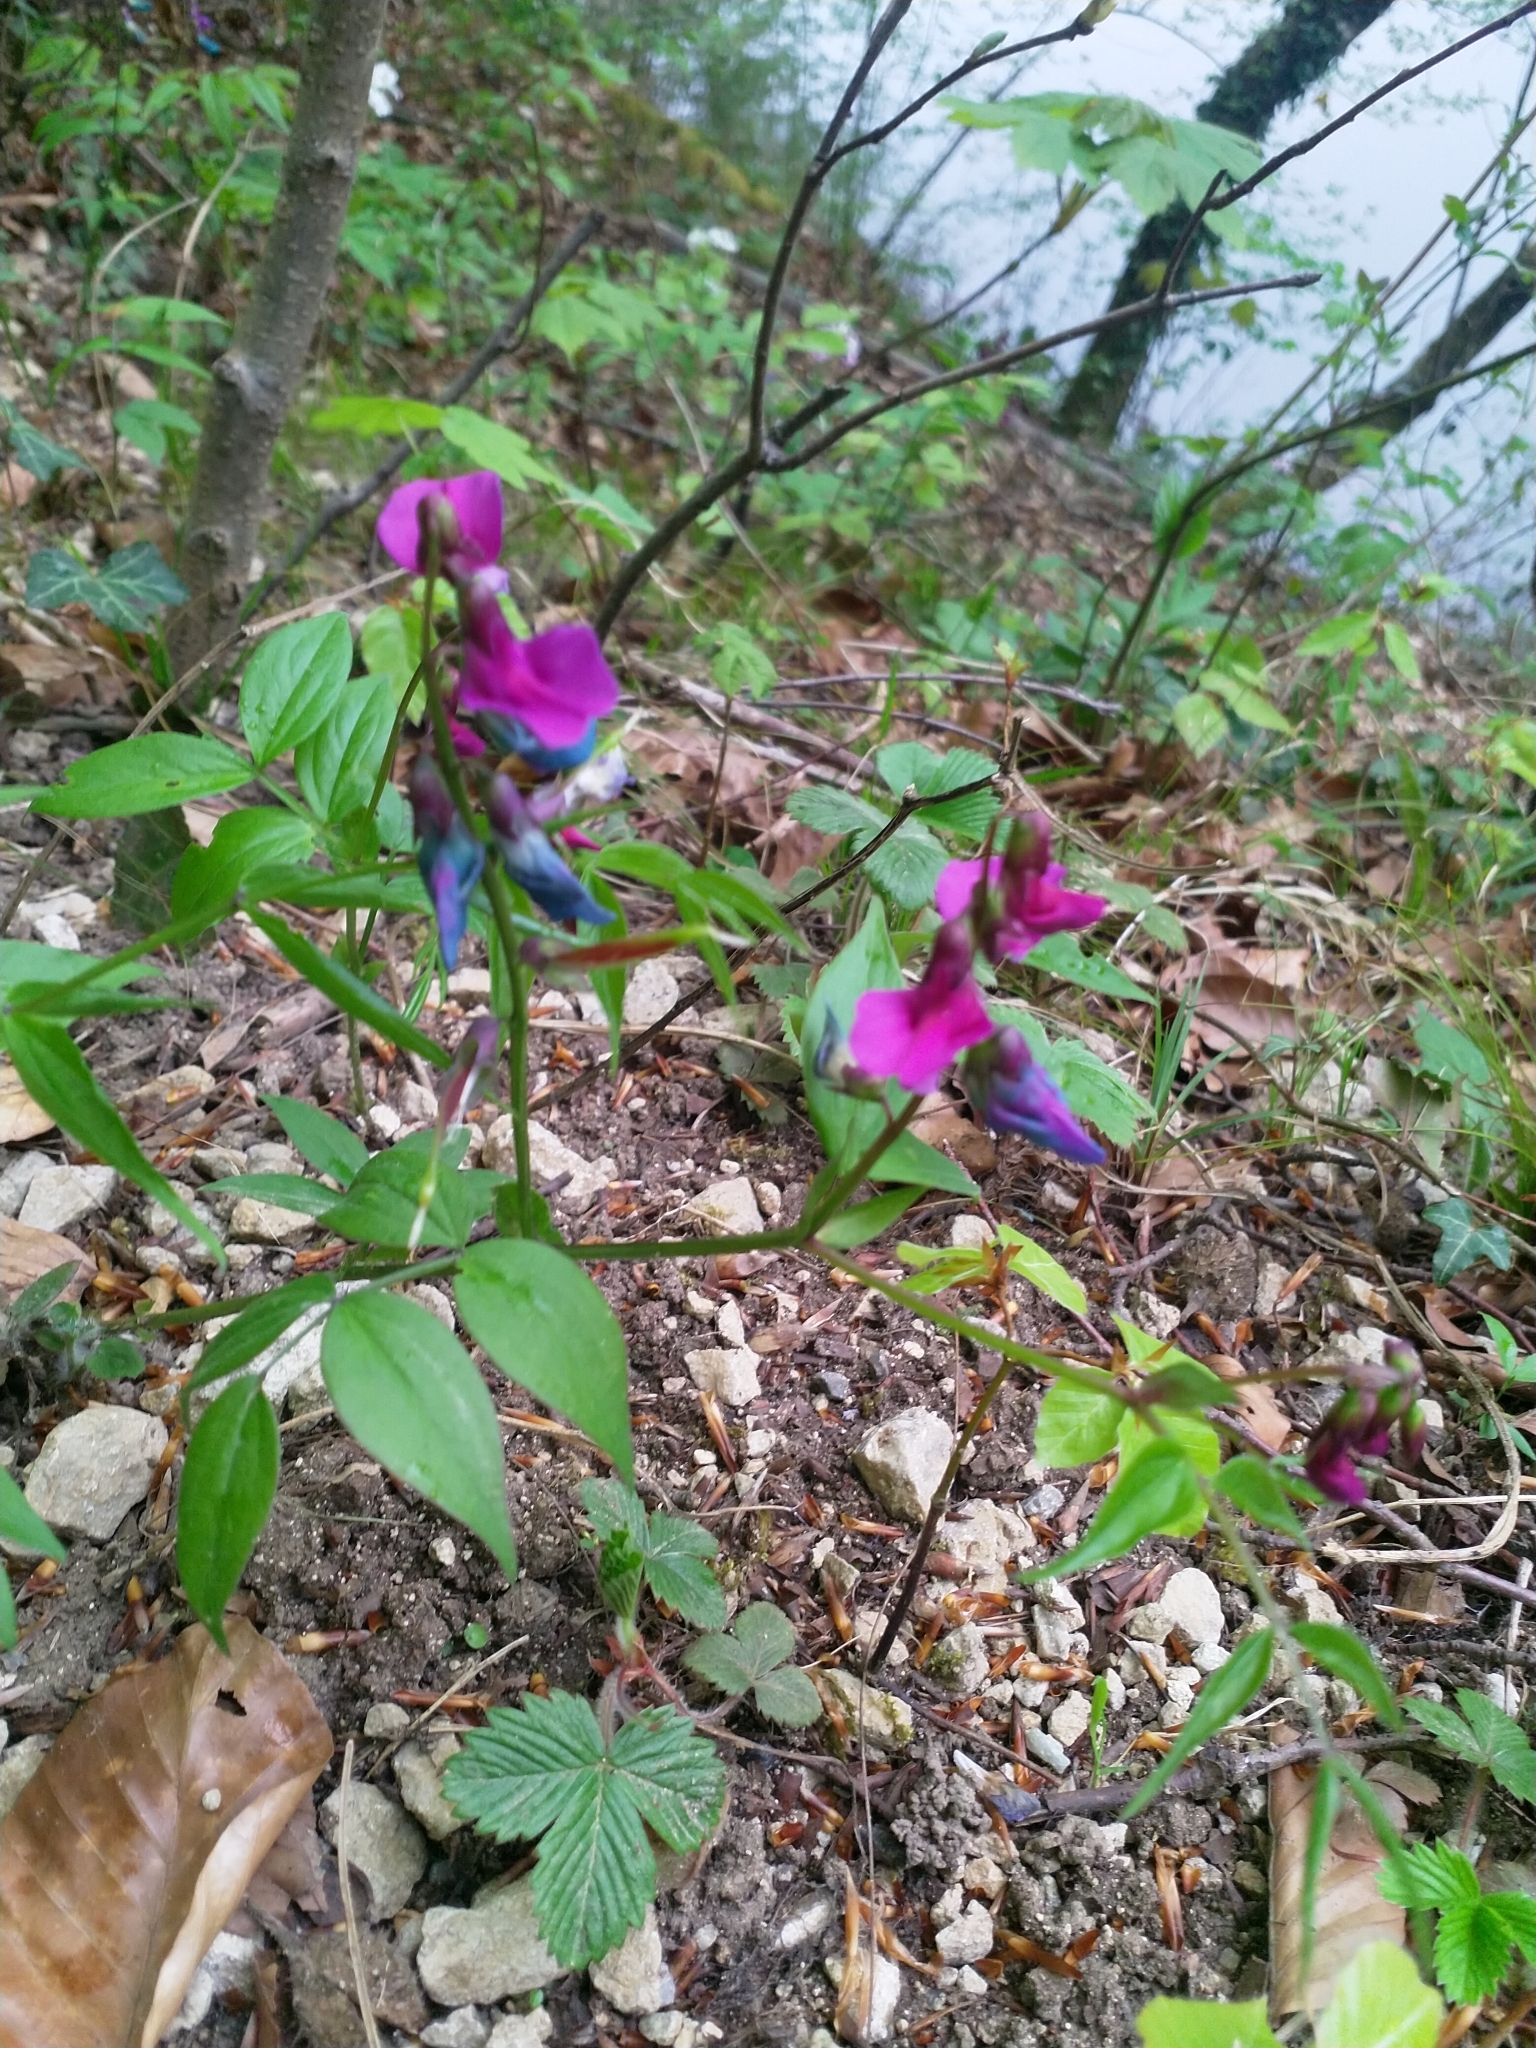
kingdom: Plantae
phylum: Tracheophyta
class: Magnoliopsida
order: Fabales
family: Fabaceae
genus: Lathyrus
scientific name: Lathyrus vernus
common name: Spring pea
